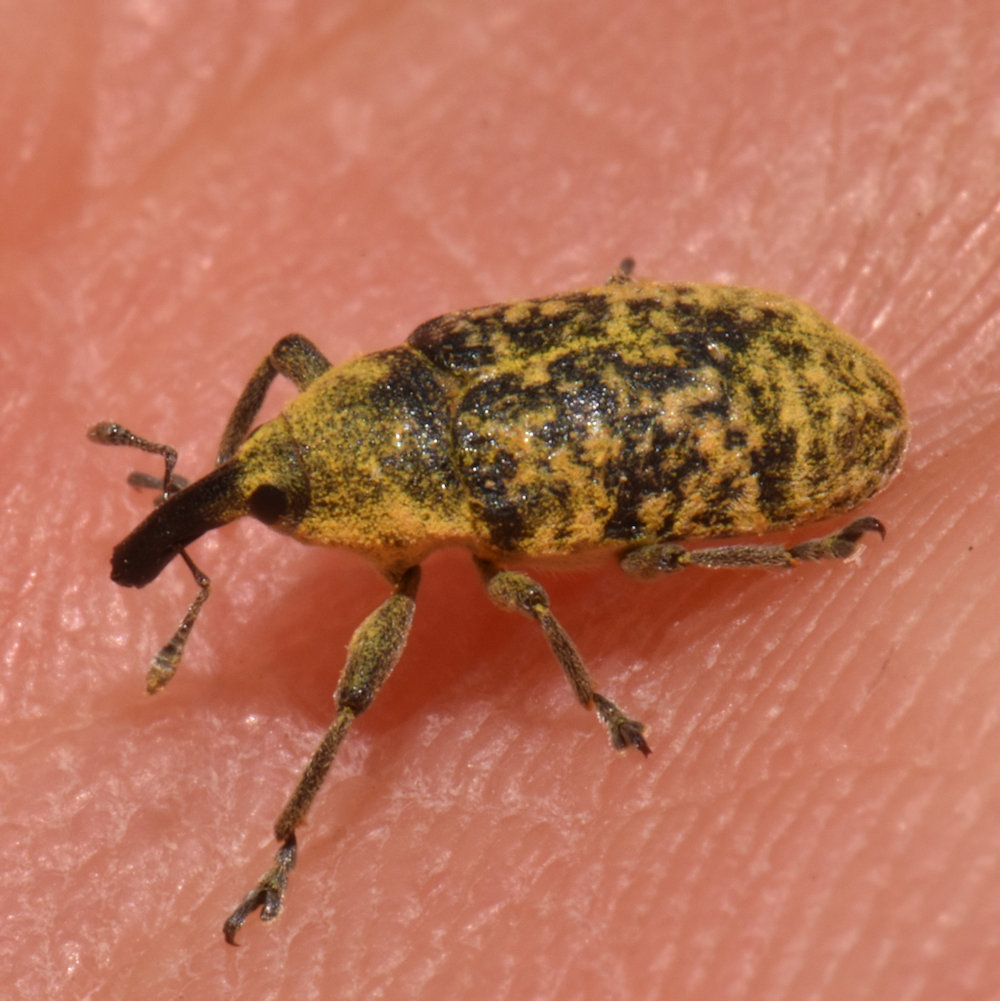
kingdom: Animalia
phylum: Arthropoda
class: Insecta
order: Coleoptera
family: Curculionidae
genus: Larinus
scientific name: Larinus carlinae
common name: Weevil
